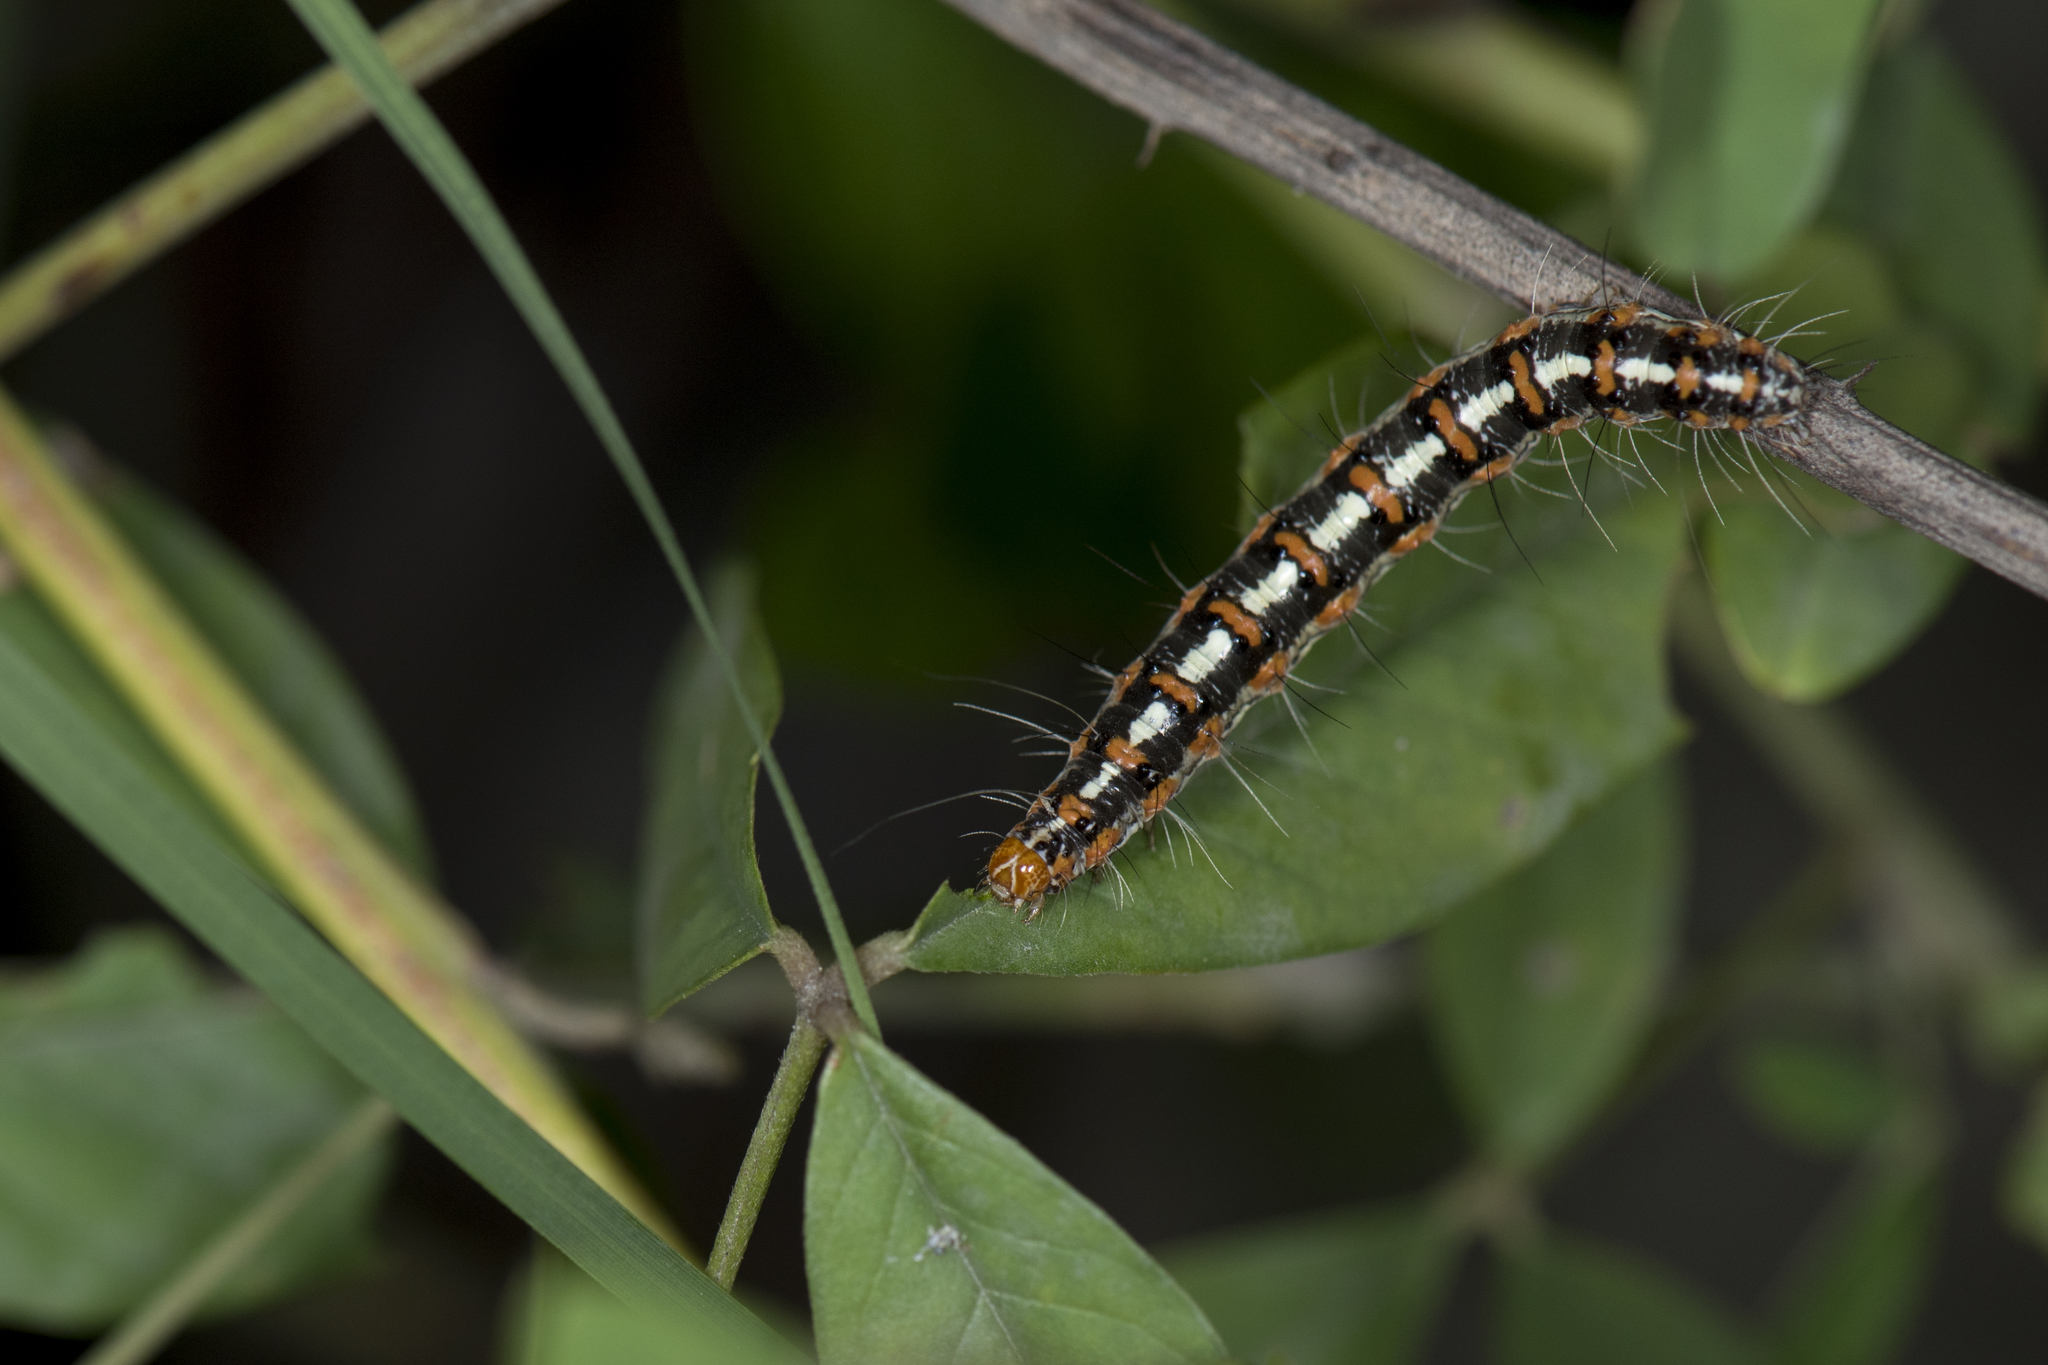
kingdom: Animalia
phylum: Arthropoda
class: Insecta
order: Lepidoptera
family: Erebidae
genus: Utetheisa
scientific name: Utetheisa lotrix
